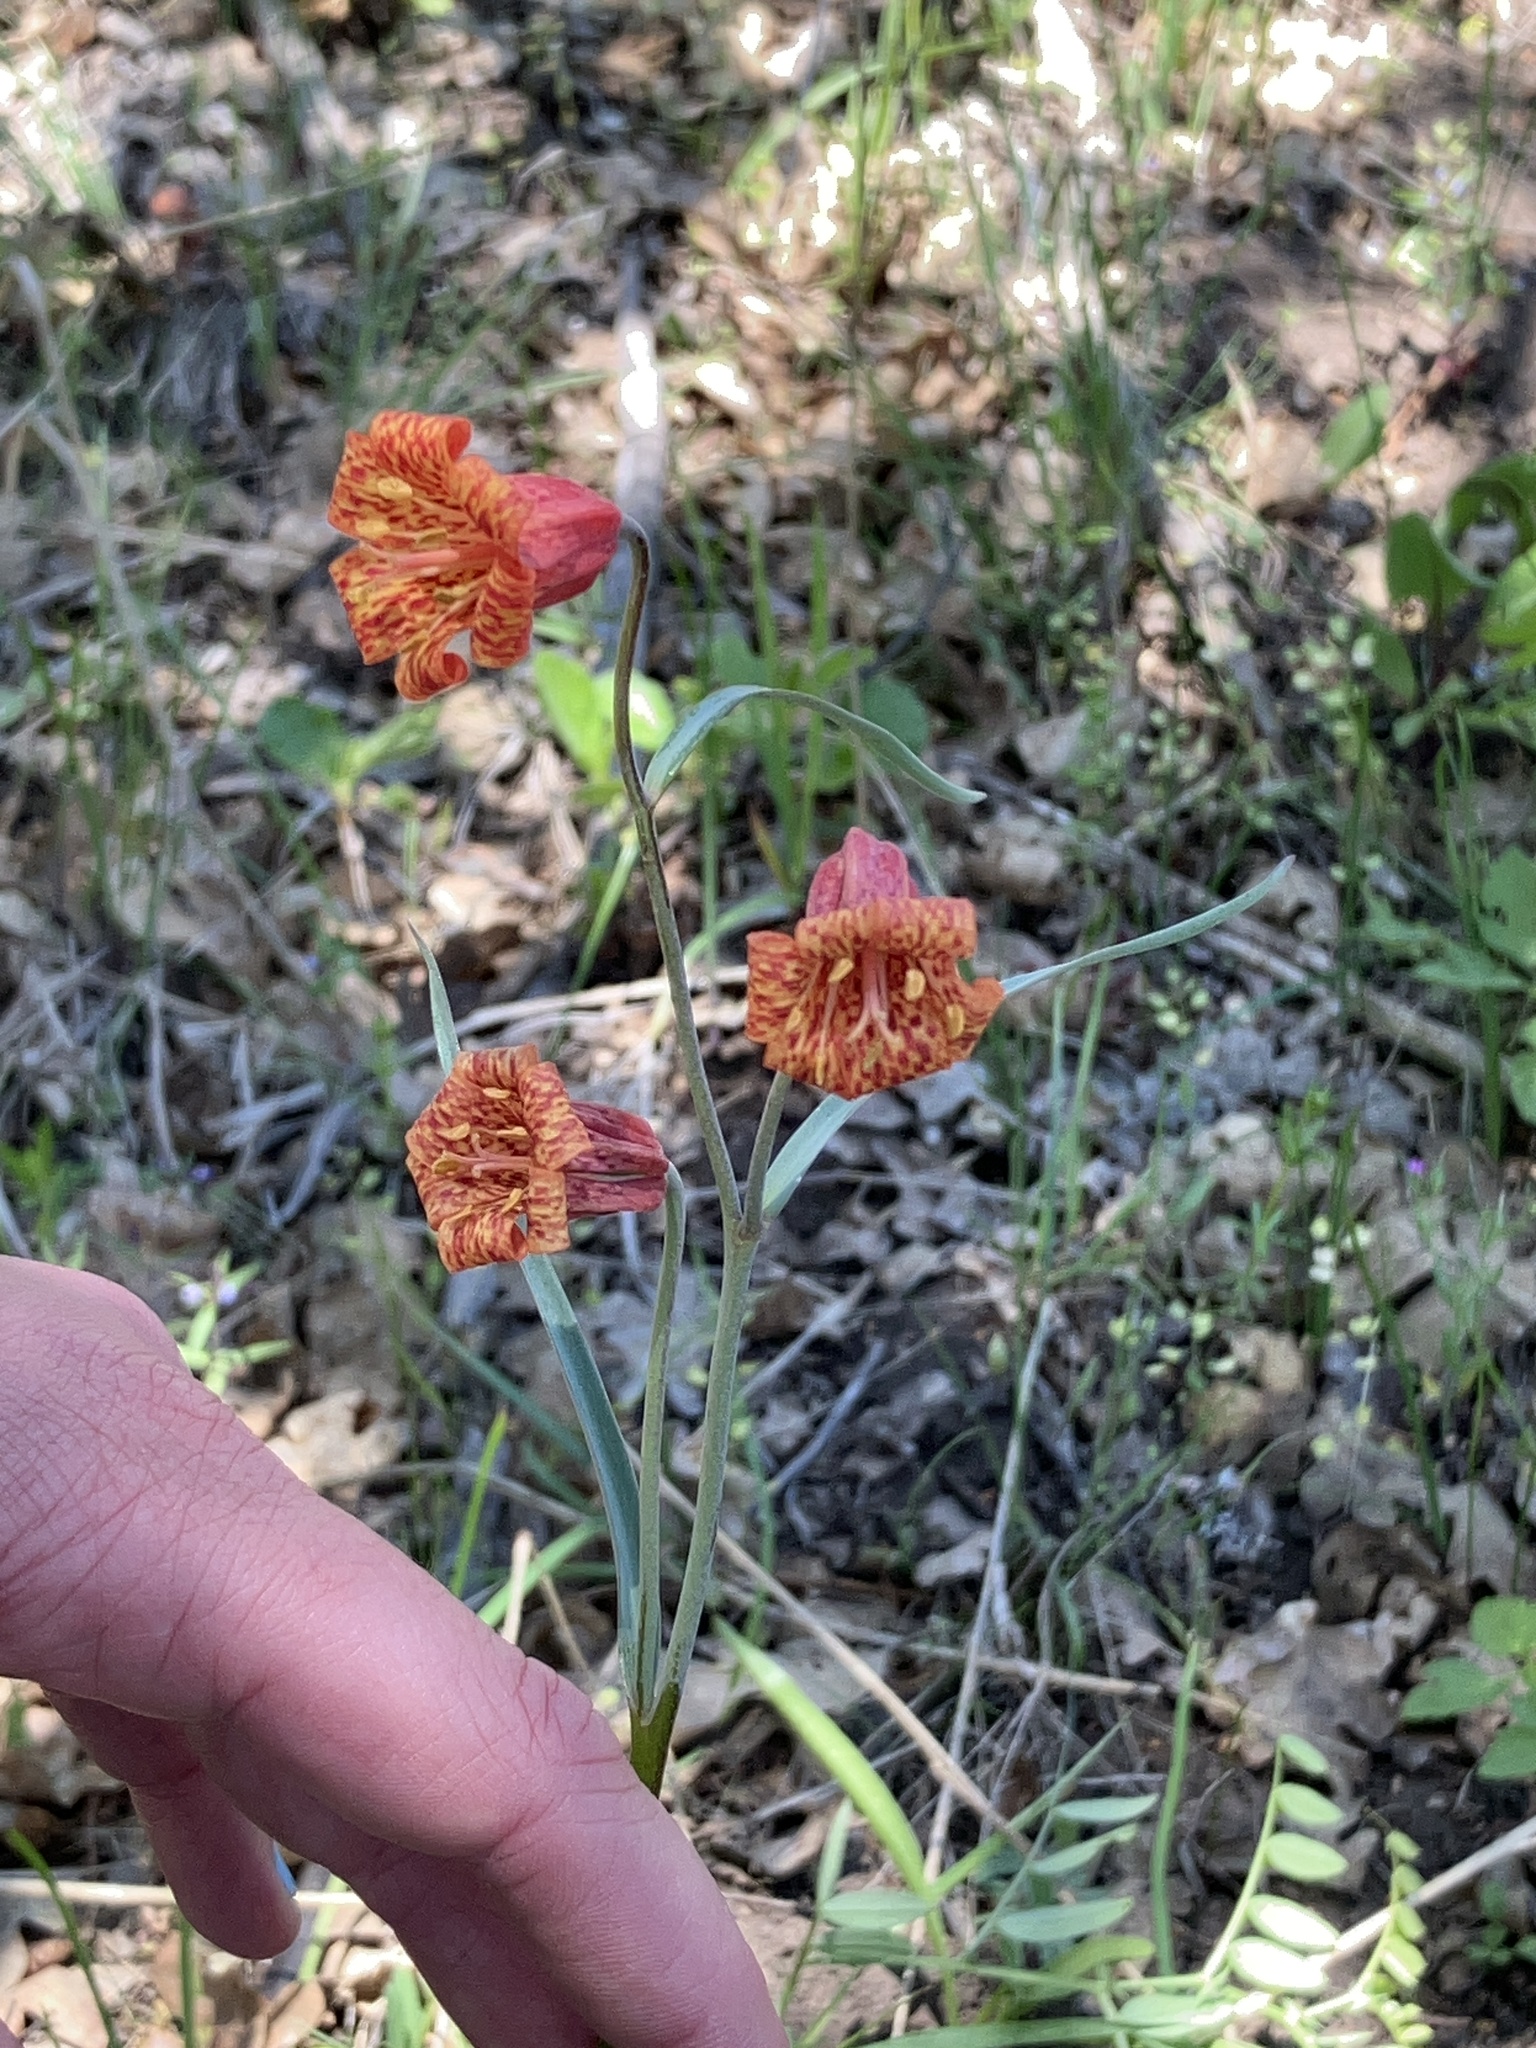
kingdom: Plantae
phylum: Tracheophyta
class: Liliopsida
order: Liliales
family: Liliaceae
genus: Fritillaria
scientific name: Fritillaria recurva
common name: Scarlet fritillary
